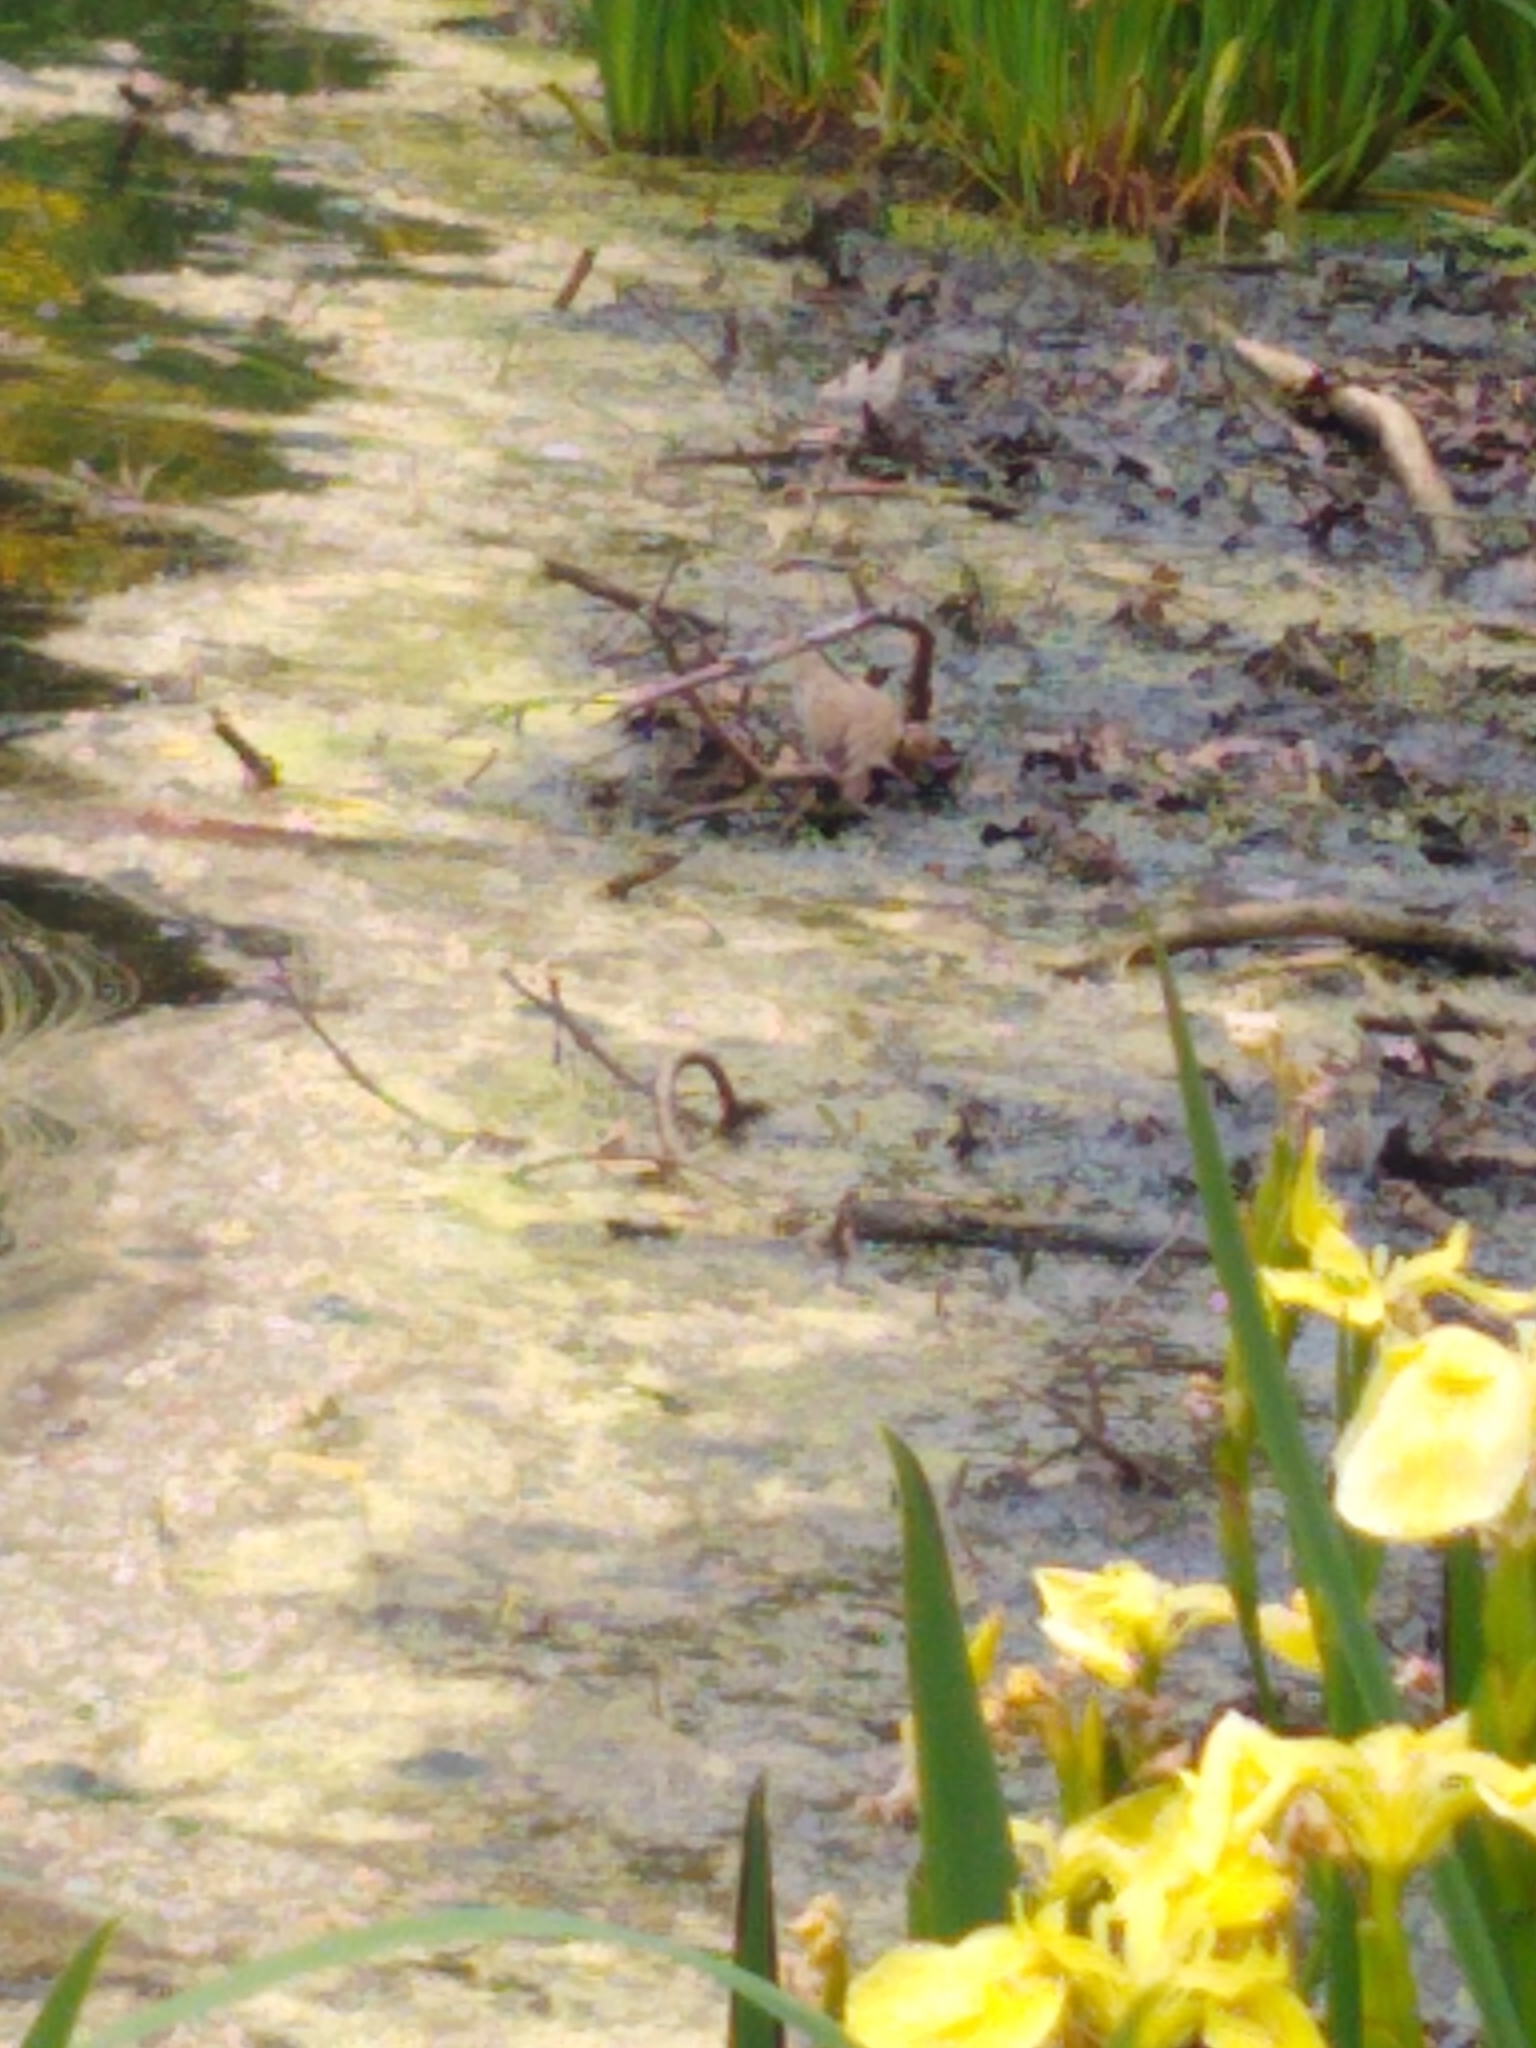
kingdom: Animalia
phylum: Chordata
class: Aves
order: Columbiformes
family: Columbidae
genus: Zenaida
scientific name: Zenaida macroura
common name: Mourning dove
